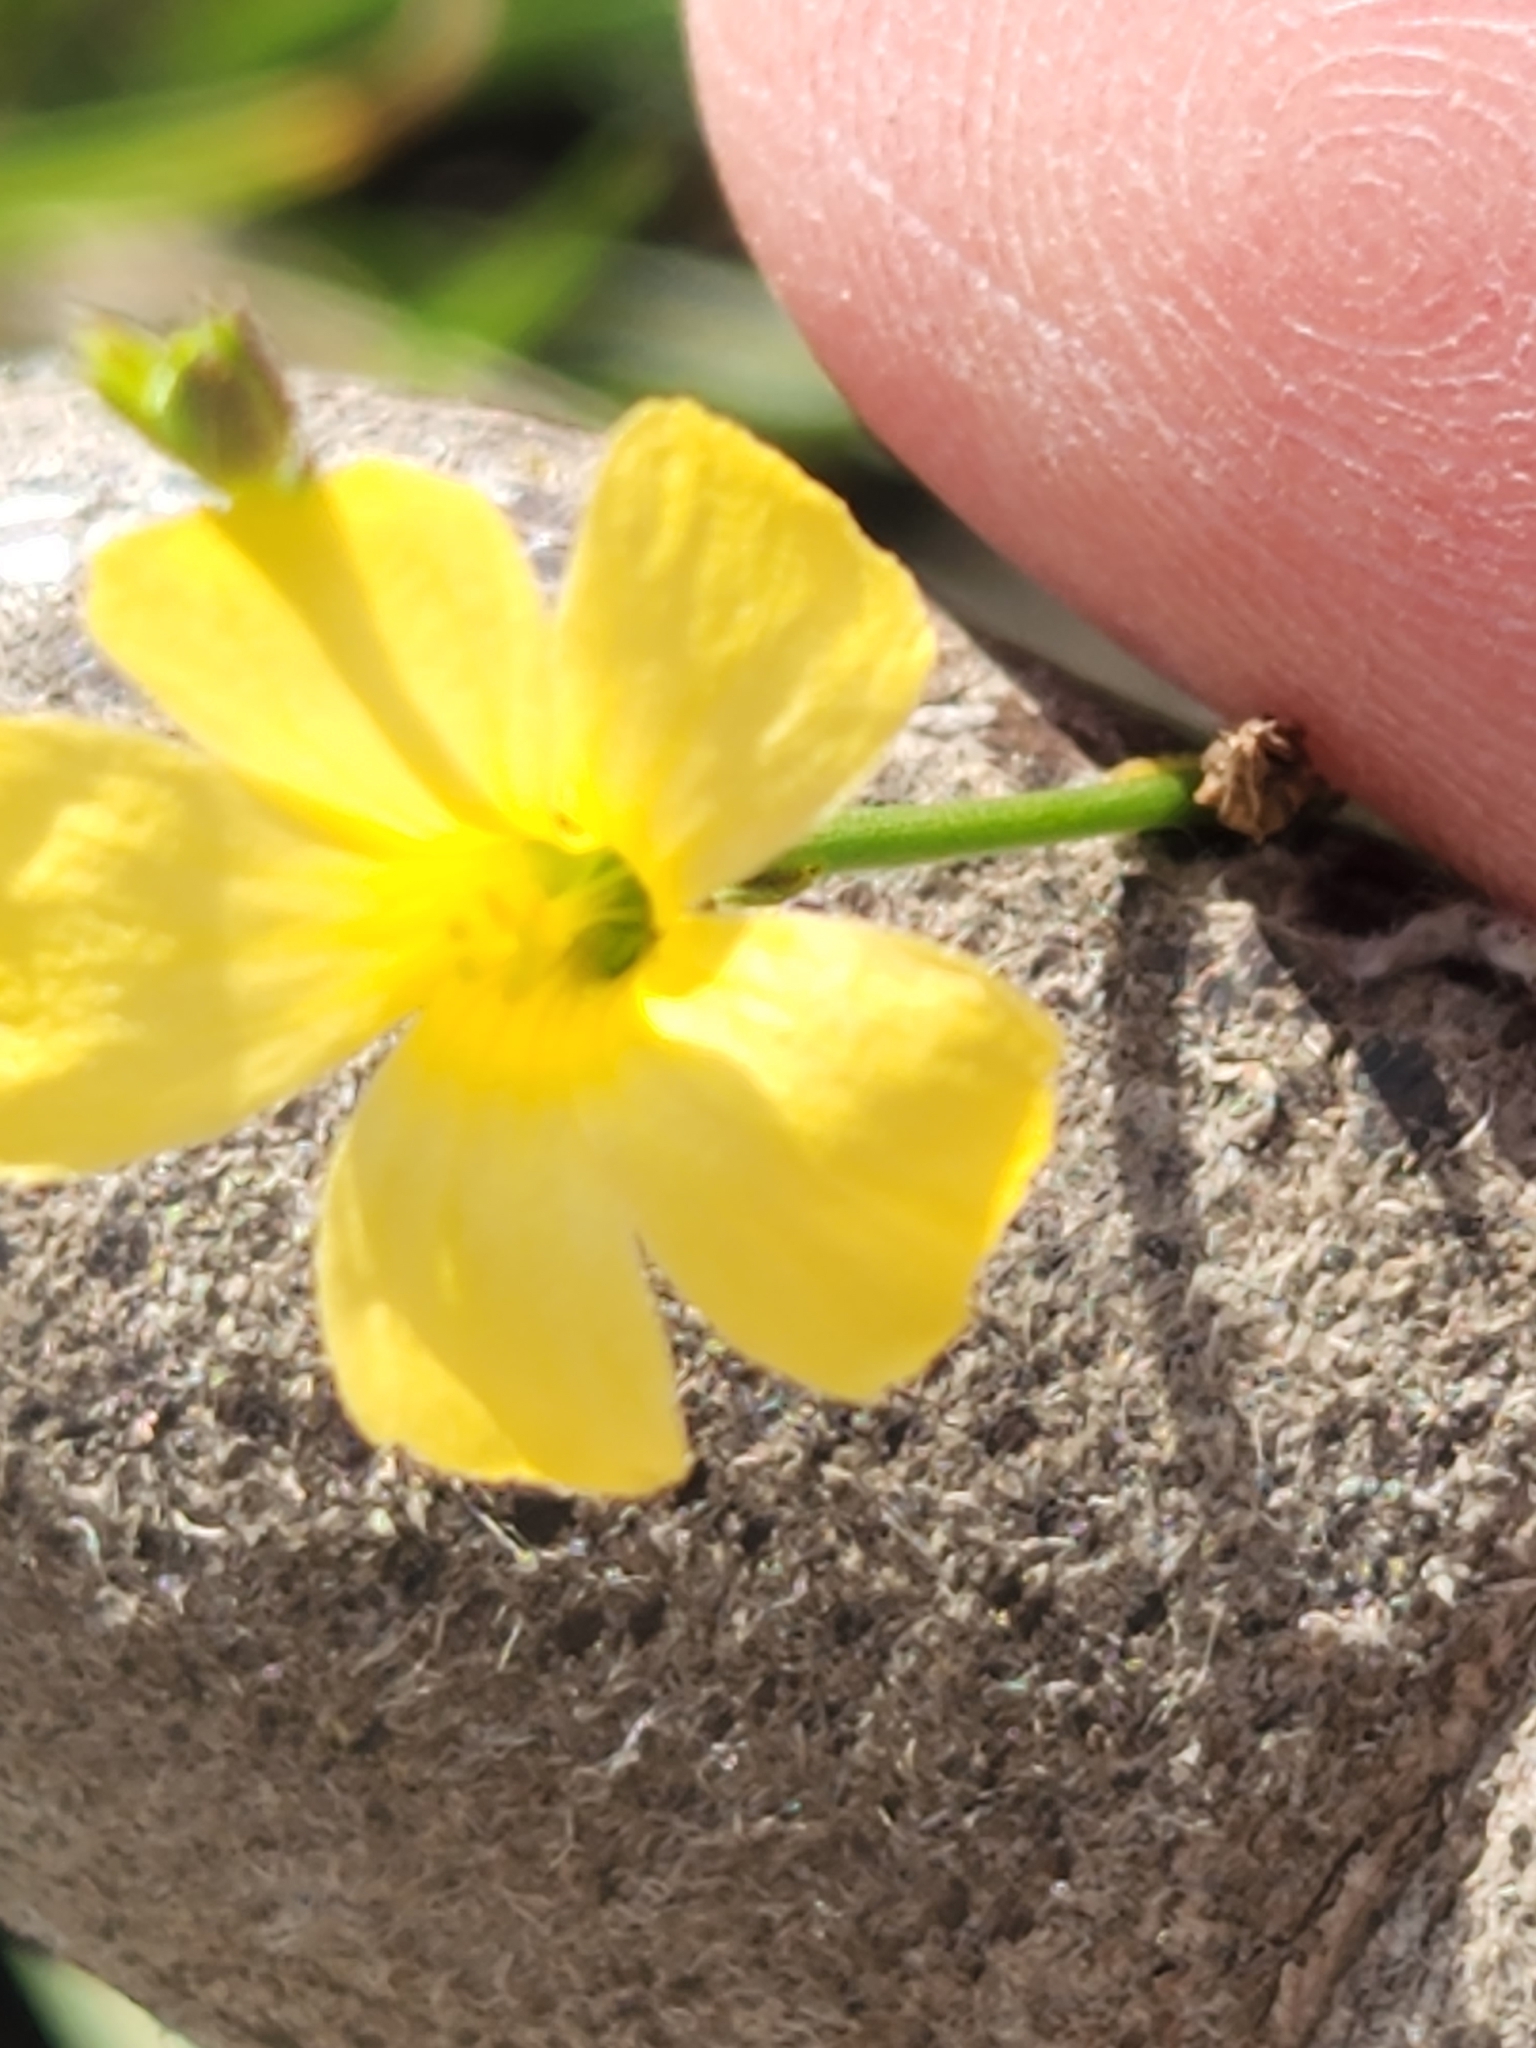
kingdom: Plantae
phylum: Tracheophyta
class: Magnoliopsida
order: Malpighiales
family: Linaceae
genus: Linum
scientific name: Linum rupestre
